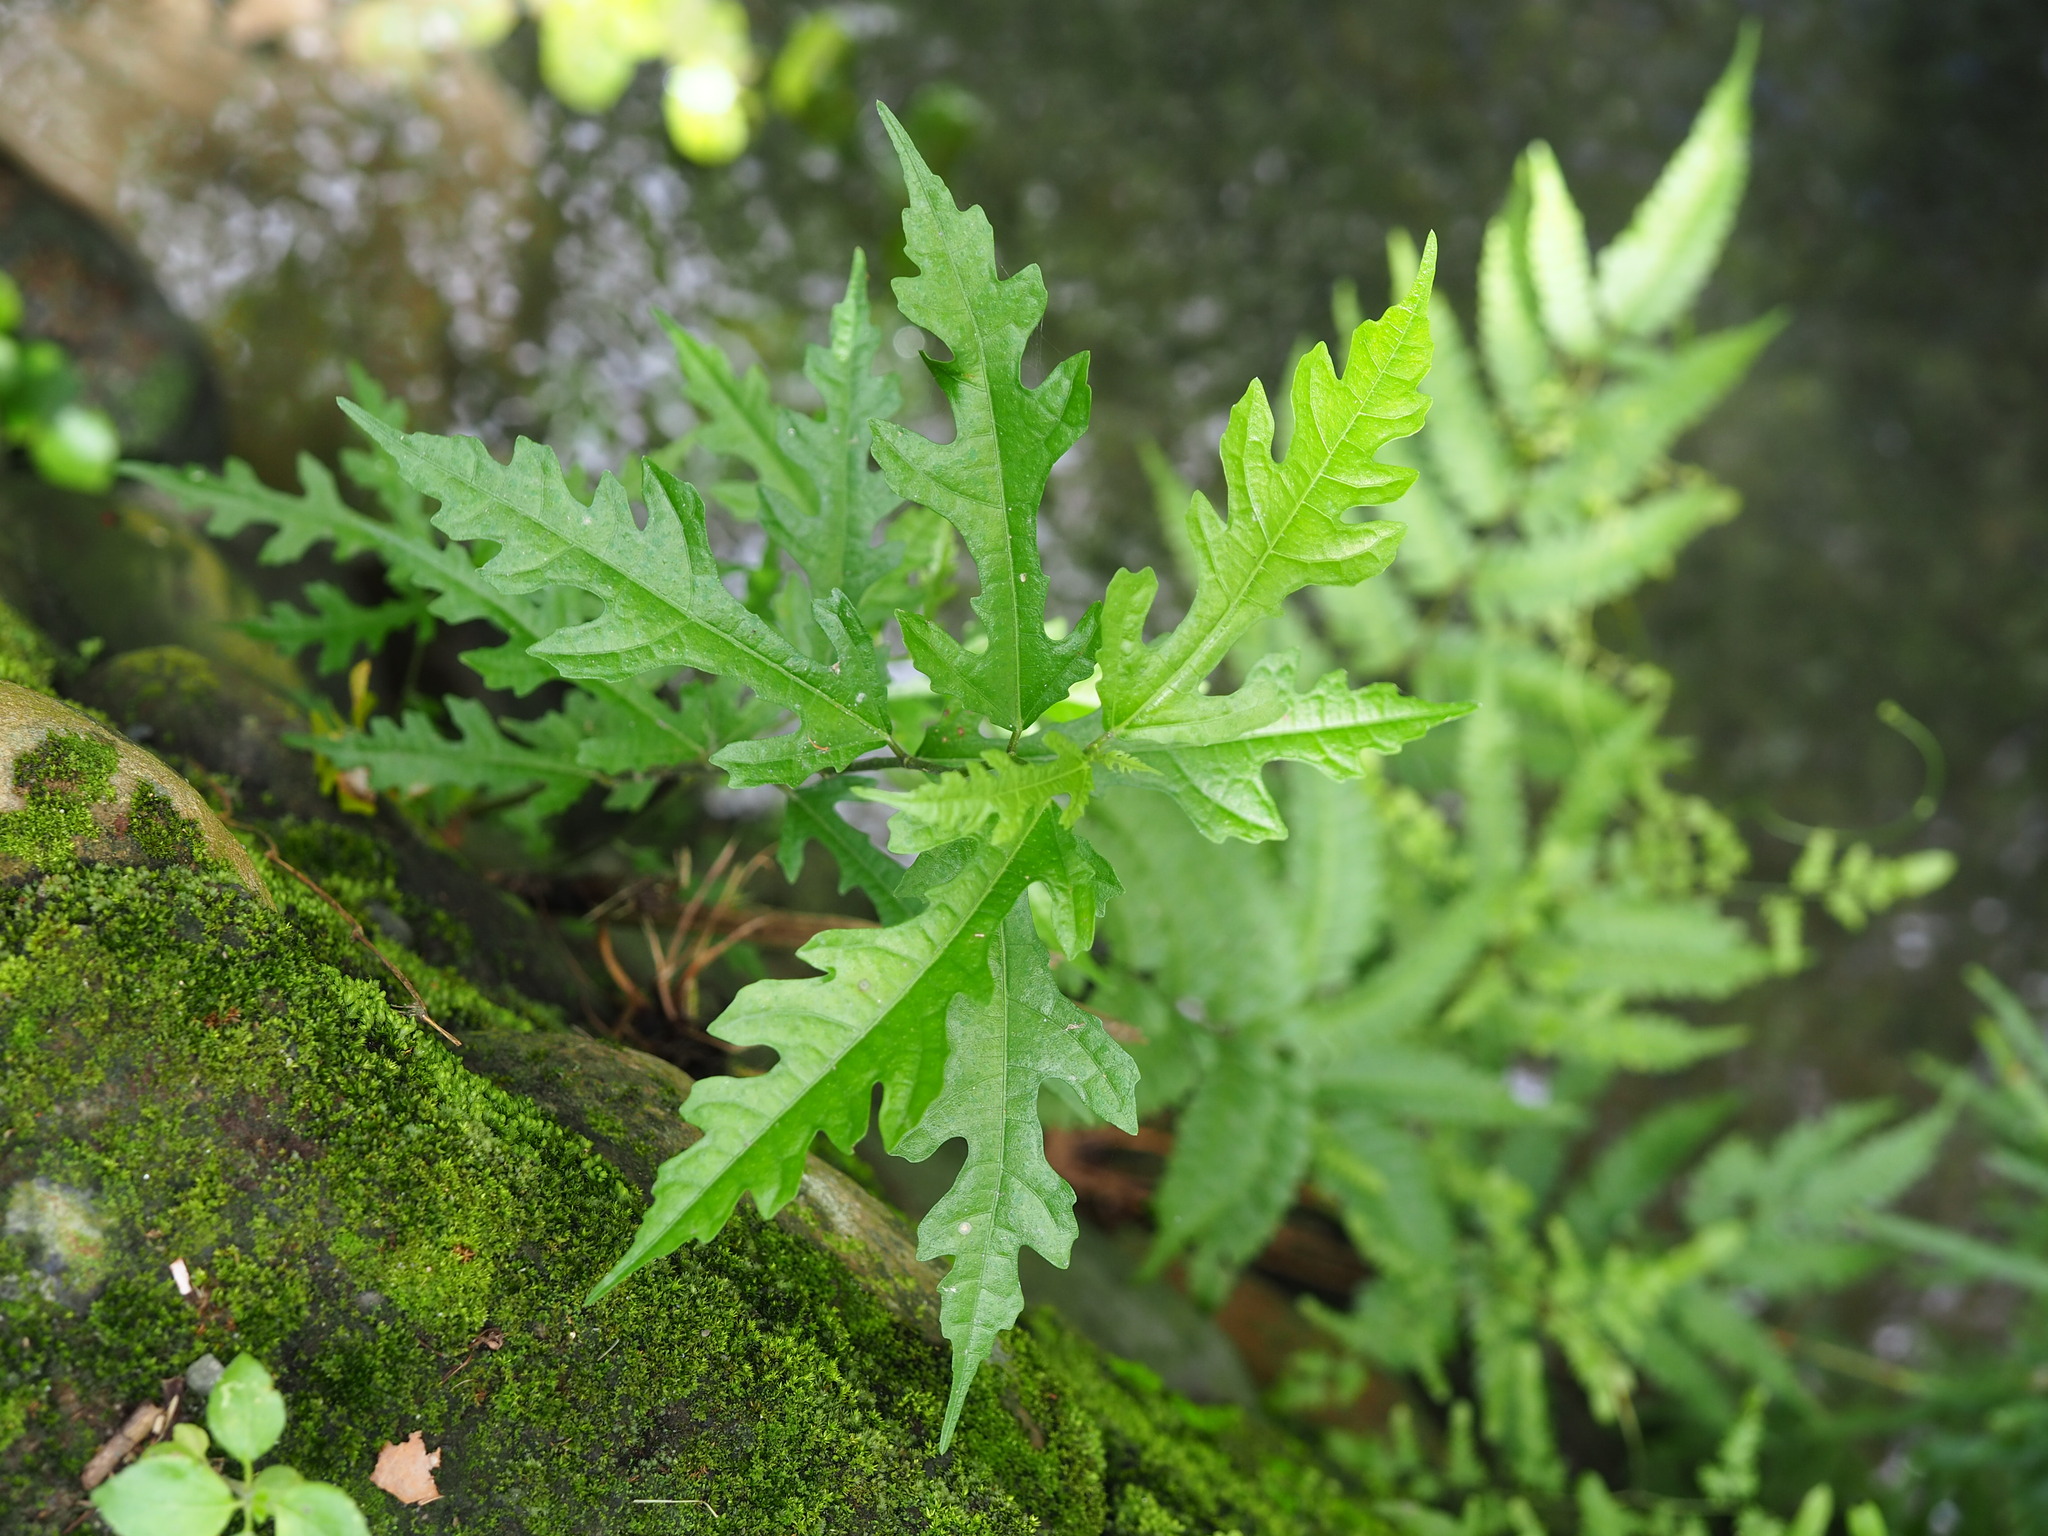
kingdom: Plantae
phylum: Tracheophyta
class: Magnoliopsida
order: Rosales
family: Moraceae
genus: Ficus
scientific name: Ficus ampelos
